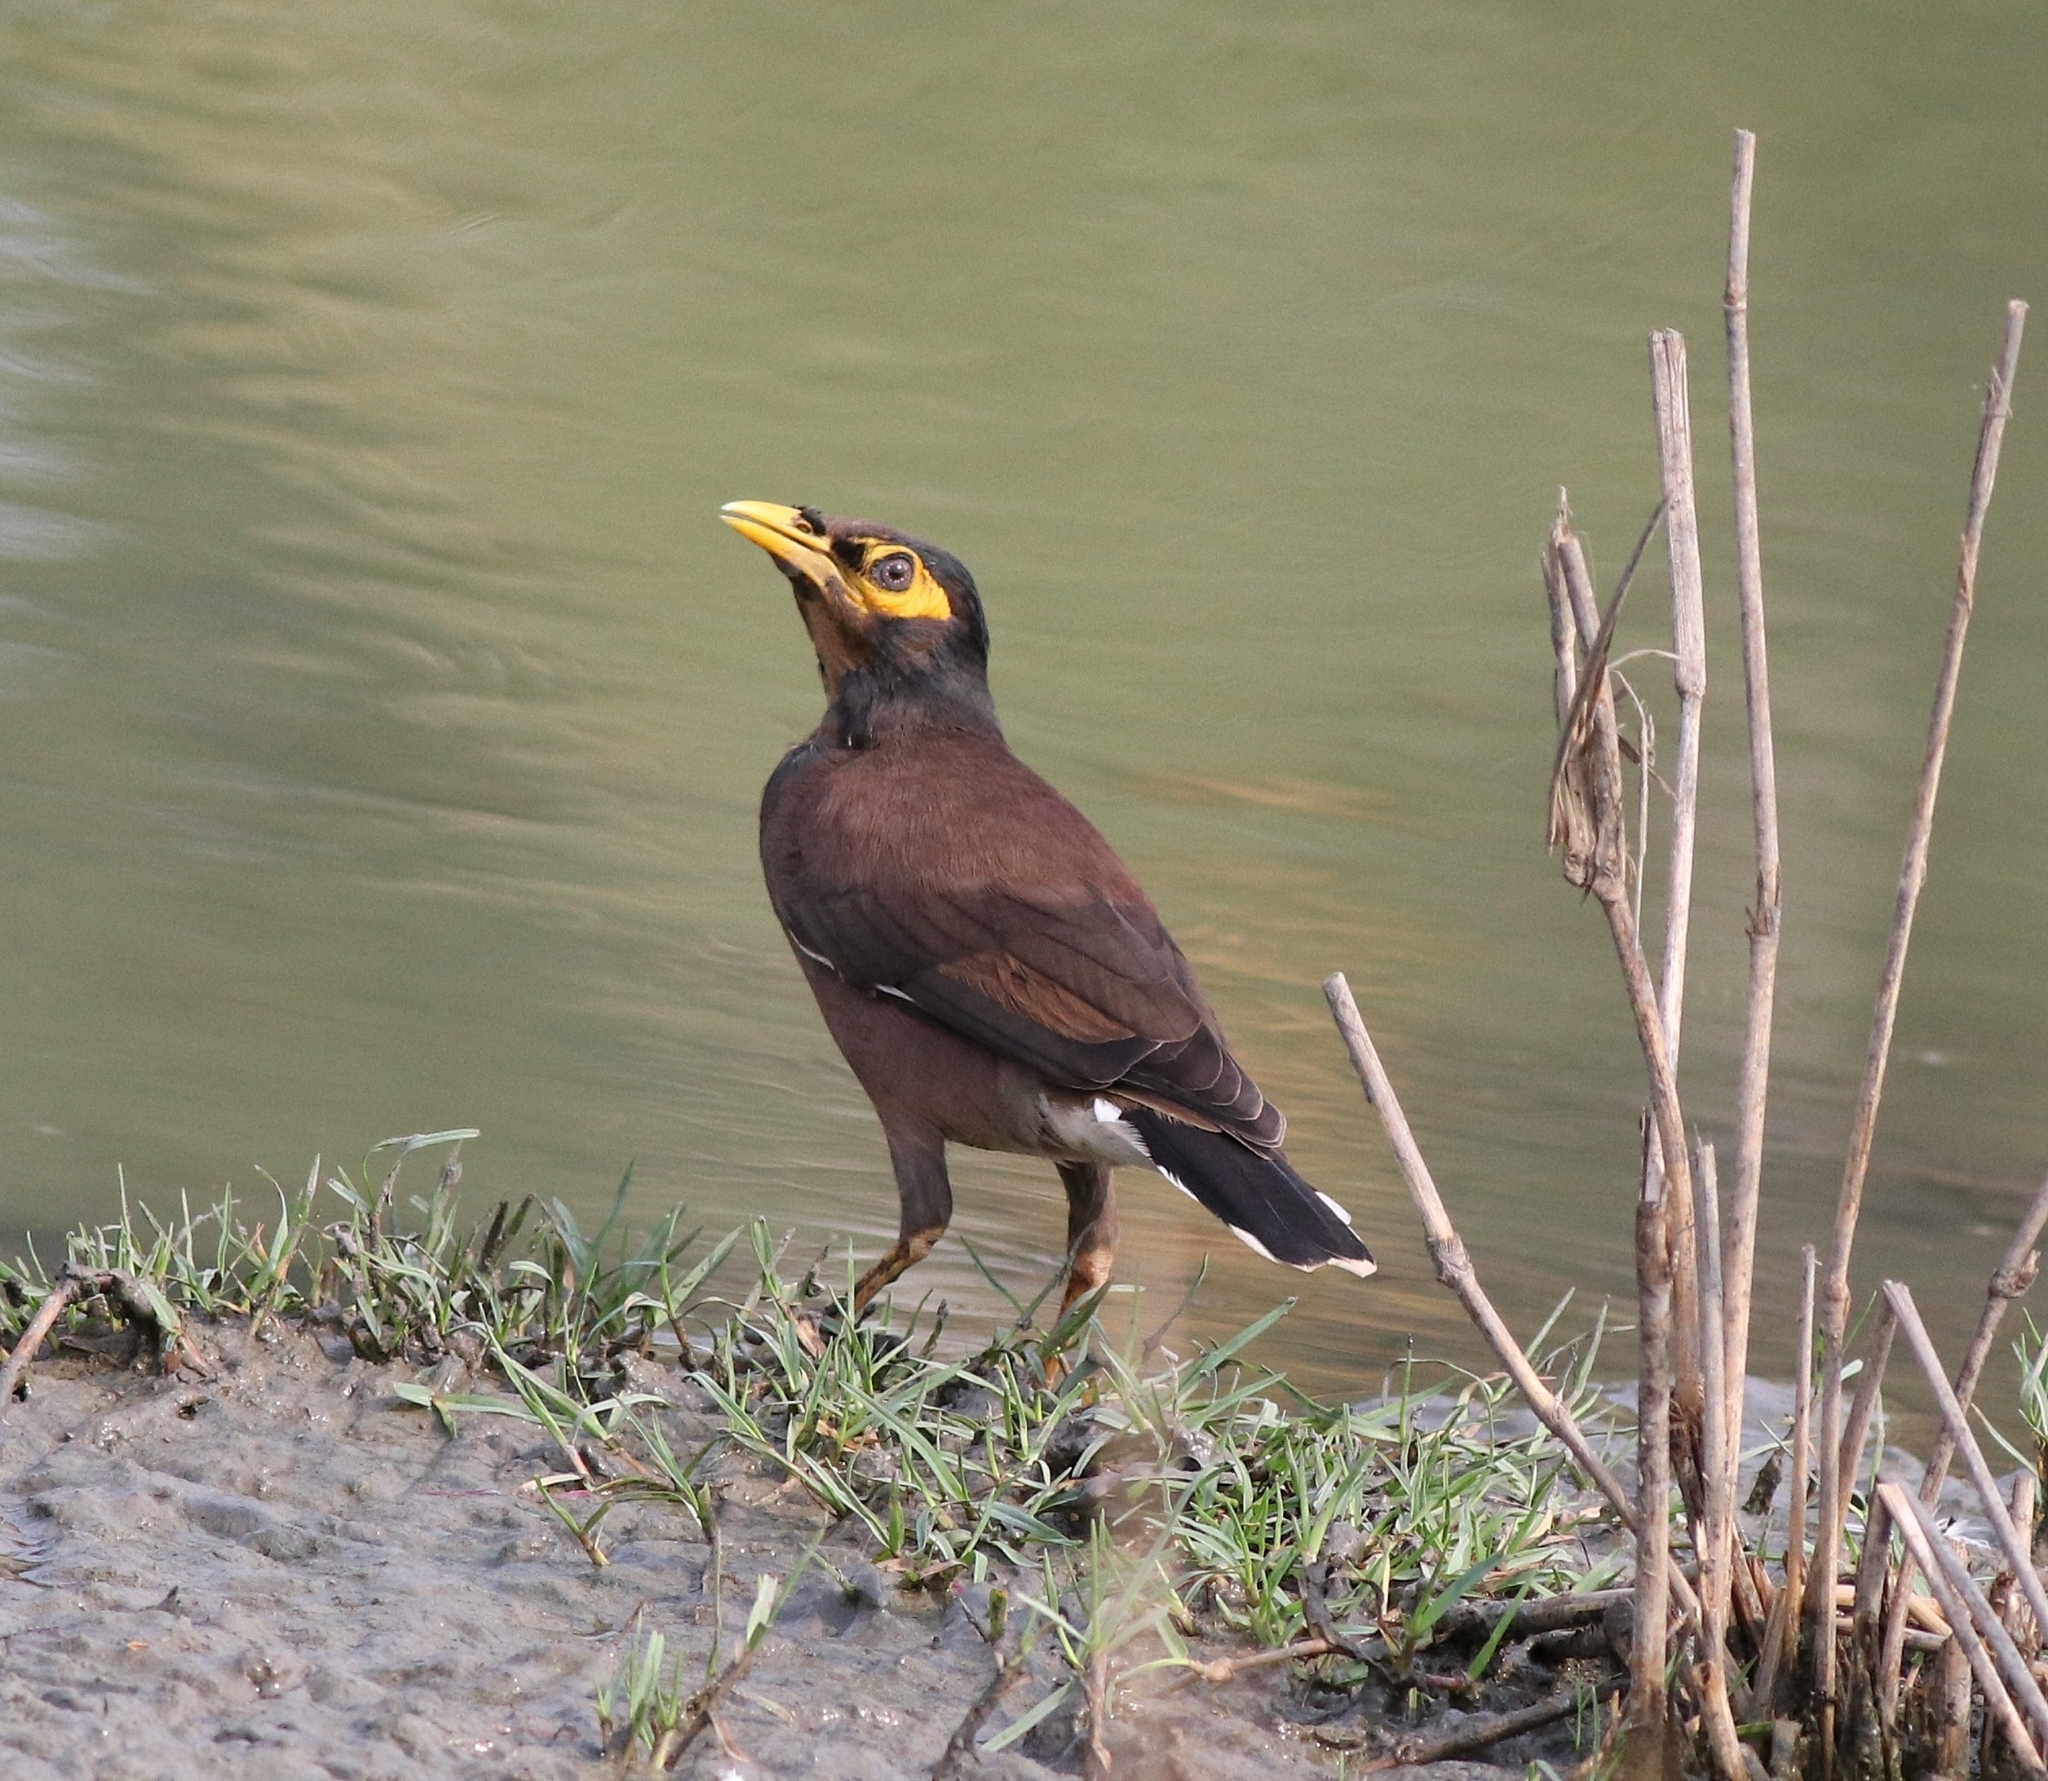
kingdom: Animalia
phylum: Chordata
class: Aves
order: Passeriformes
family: Sturnidae
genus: Acridotheres
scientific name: Acridotheres tristis
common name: Common myna
